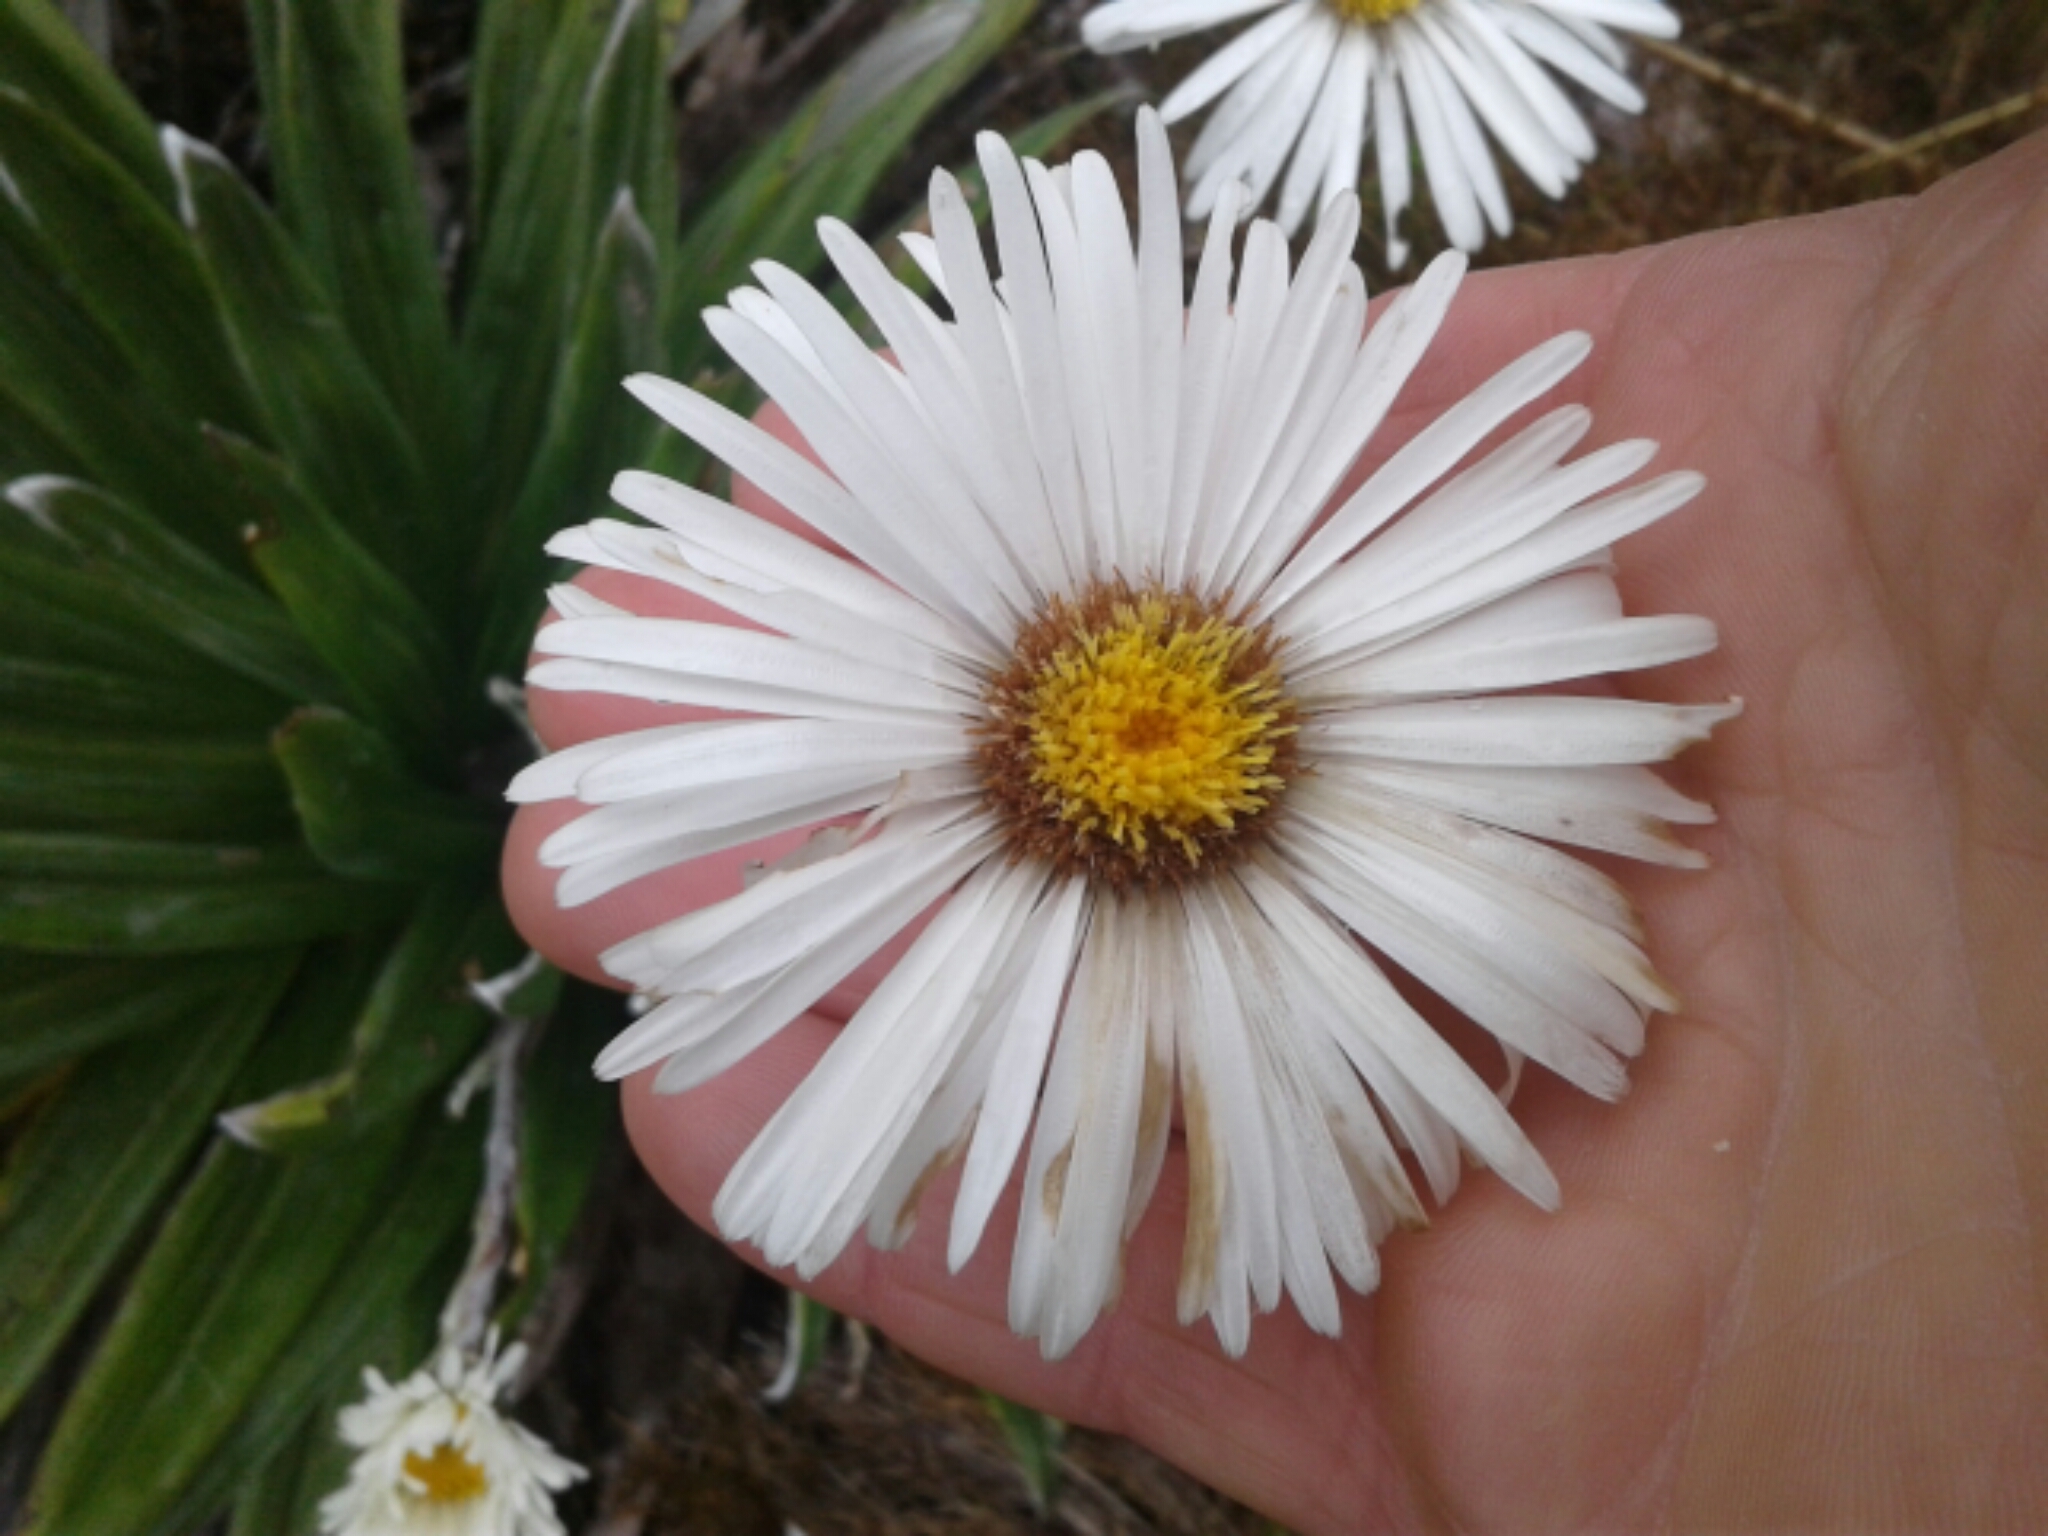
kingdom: Plantae
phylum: Tracheophyta
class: Magnoliopsida
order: Asterales
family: Asteraceae
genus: Celmisia
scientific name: Celmisia
